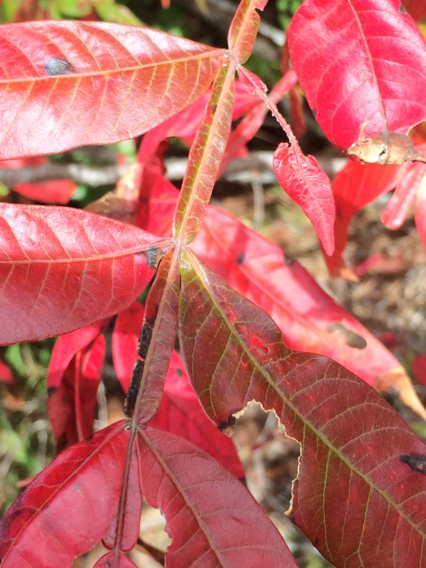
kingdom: Plantae
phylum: Tracheophyta
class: Magnoliopsida
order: Sapindales
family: Anacardiaceae
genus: Rhus
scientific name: Rhus copallina
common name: Shining sumac
